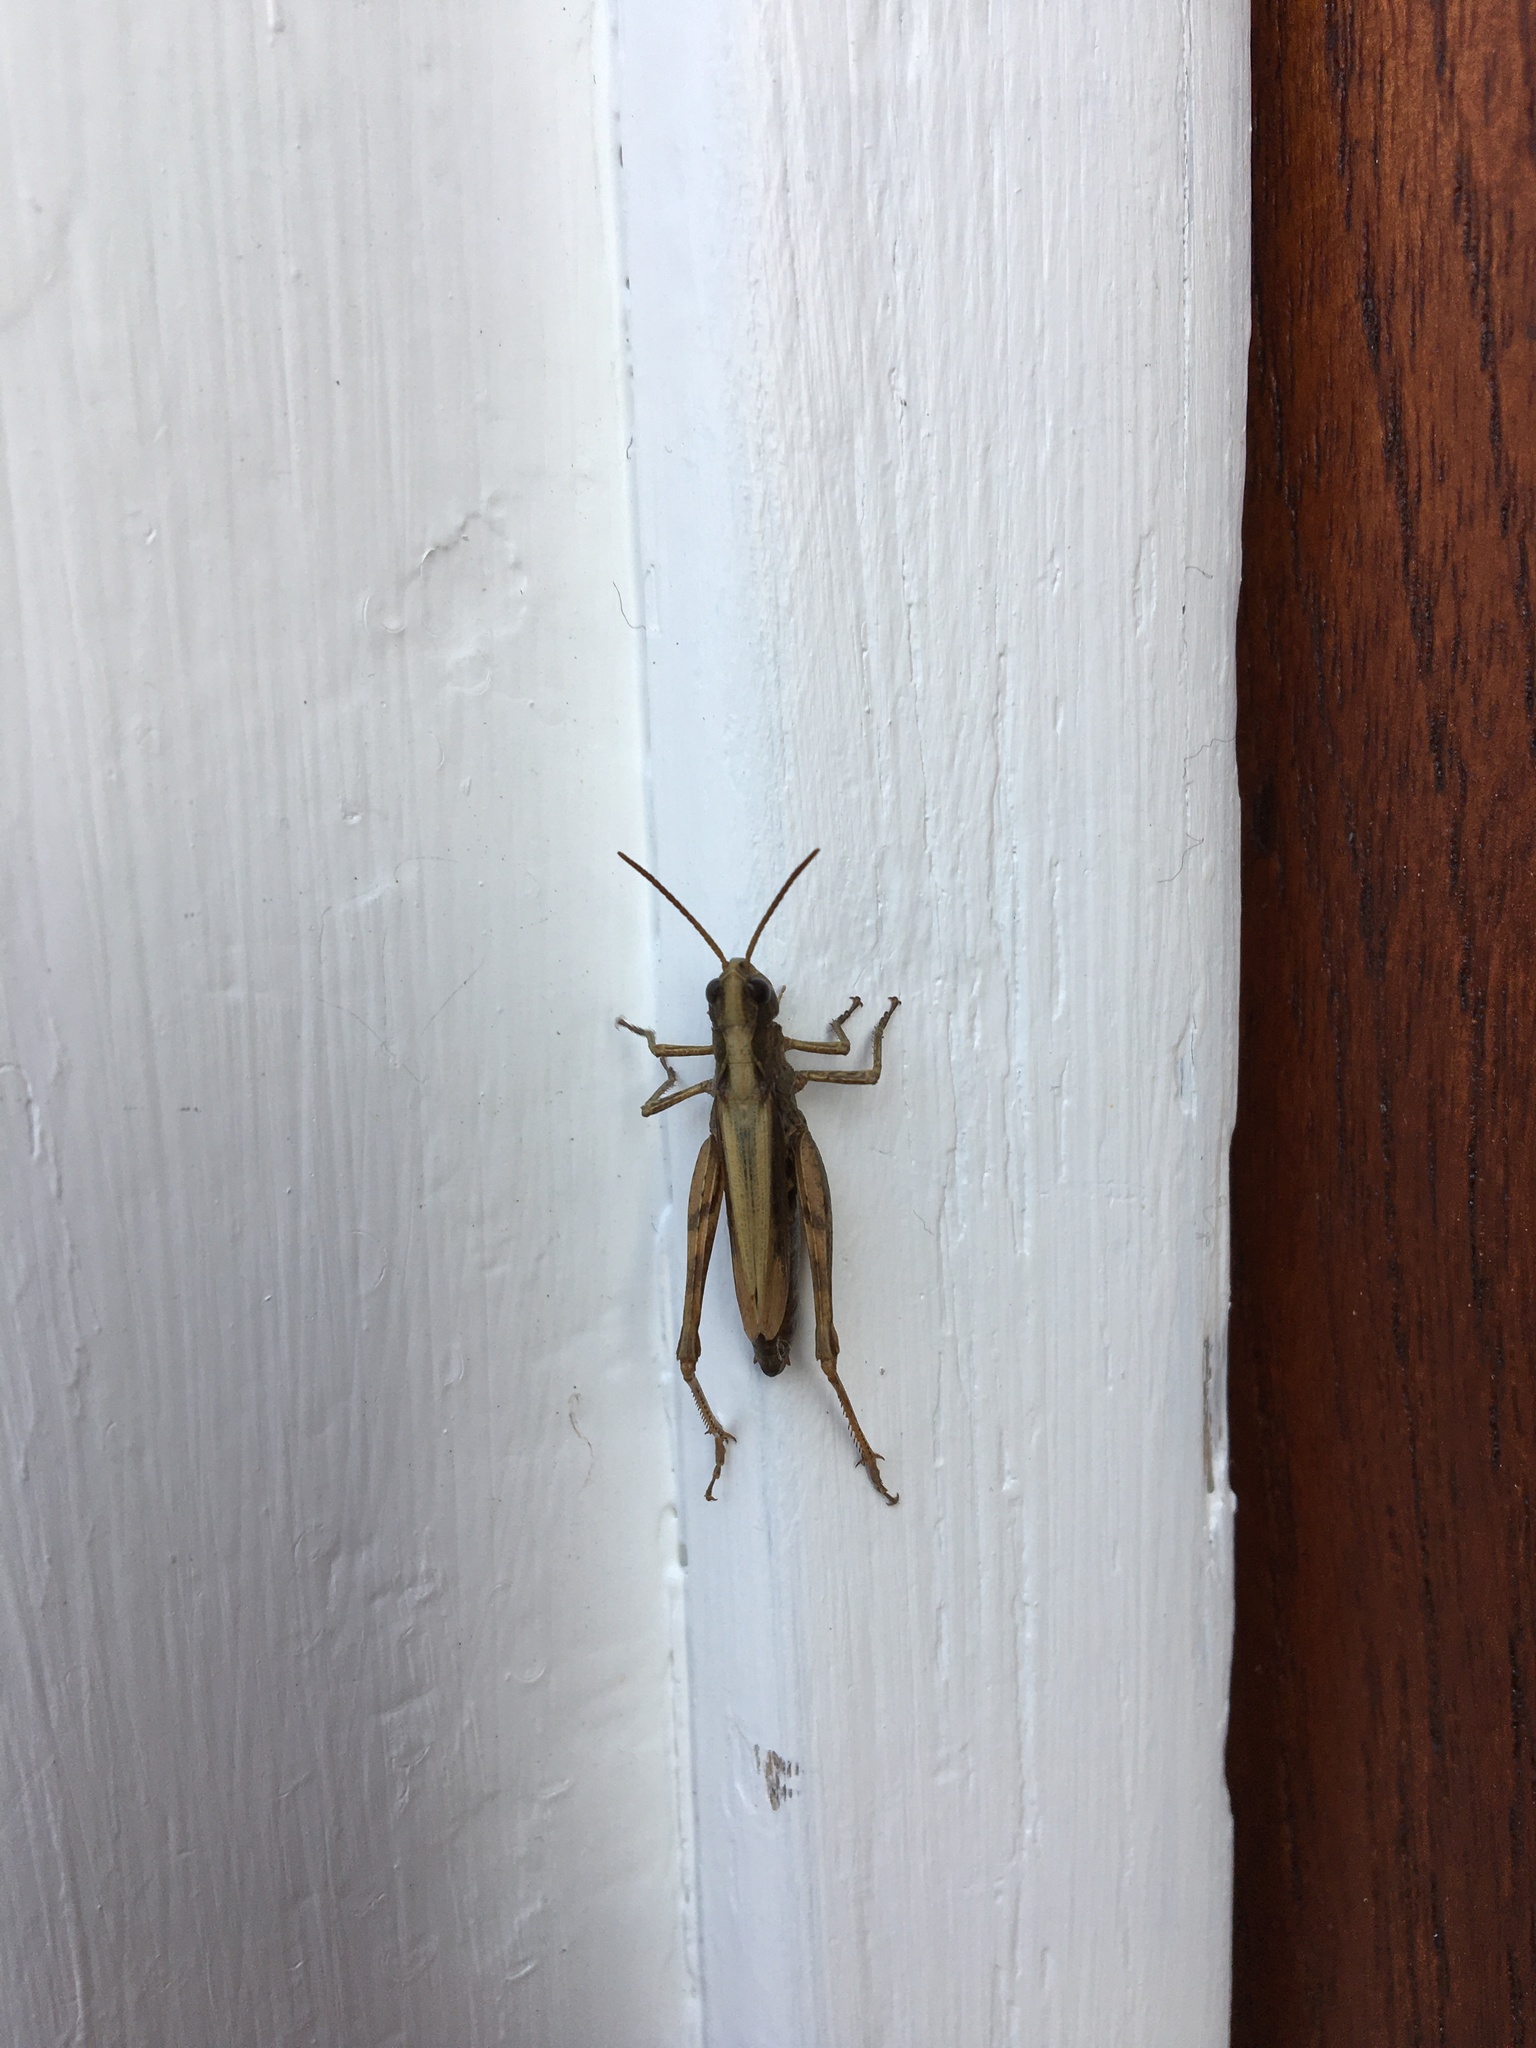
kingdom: Animalia
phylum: Arthropoda
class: Insecta
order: Orthoptera
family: Acrididae
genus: Chorthippus
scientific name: Chorthippus apricarius
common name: Upland field grasshopper
